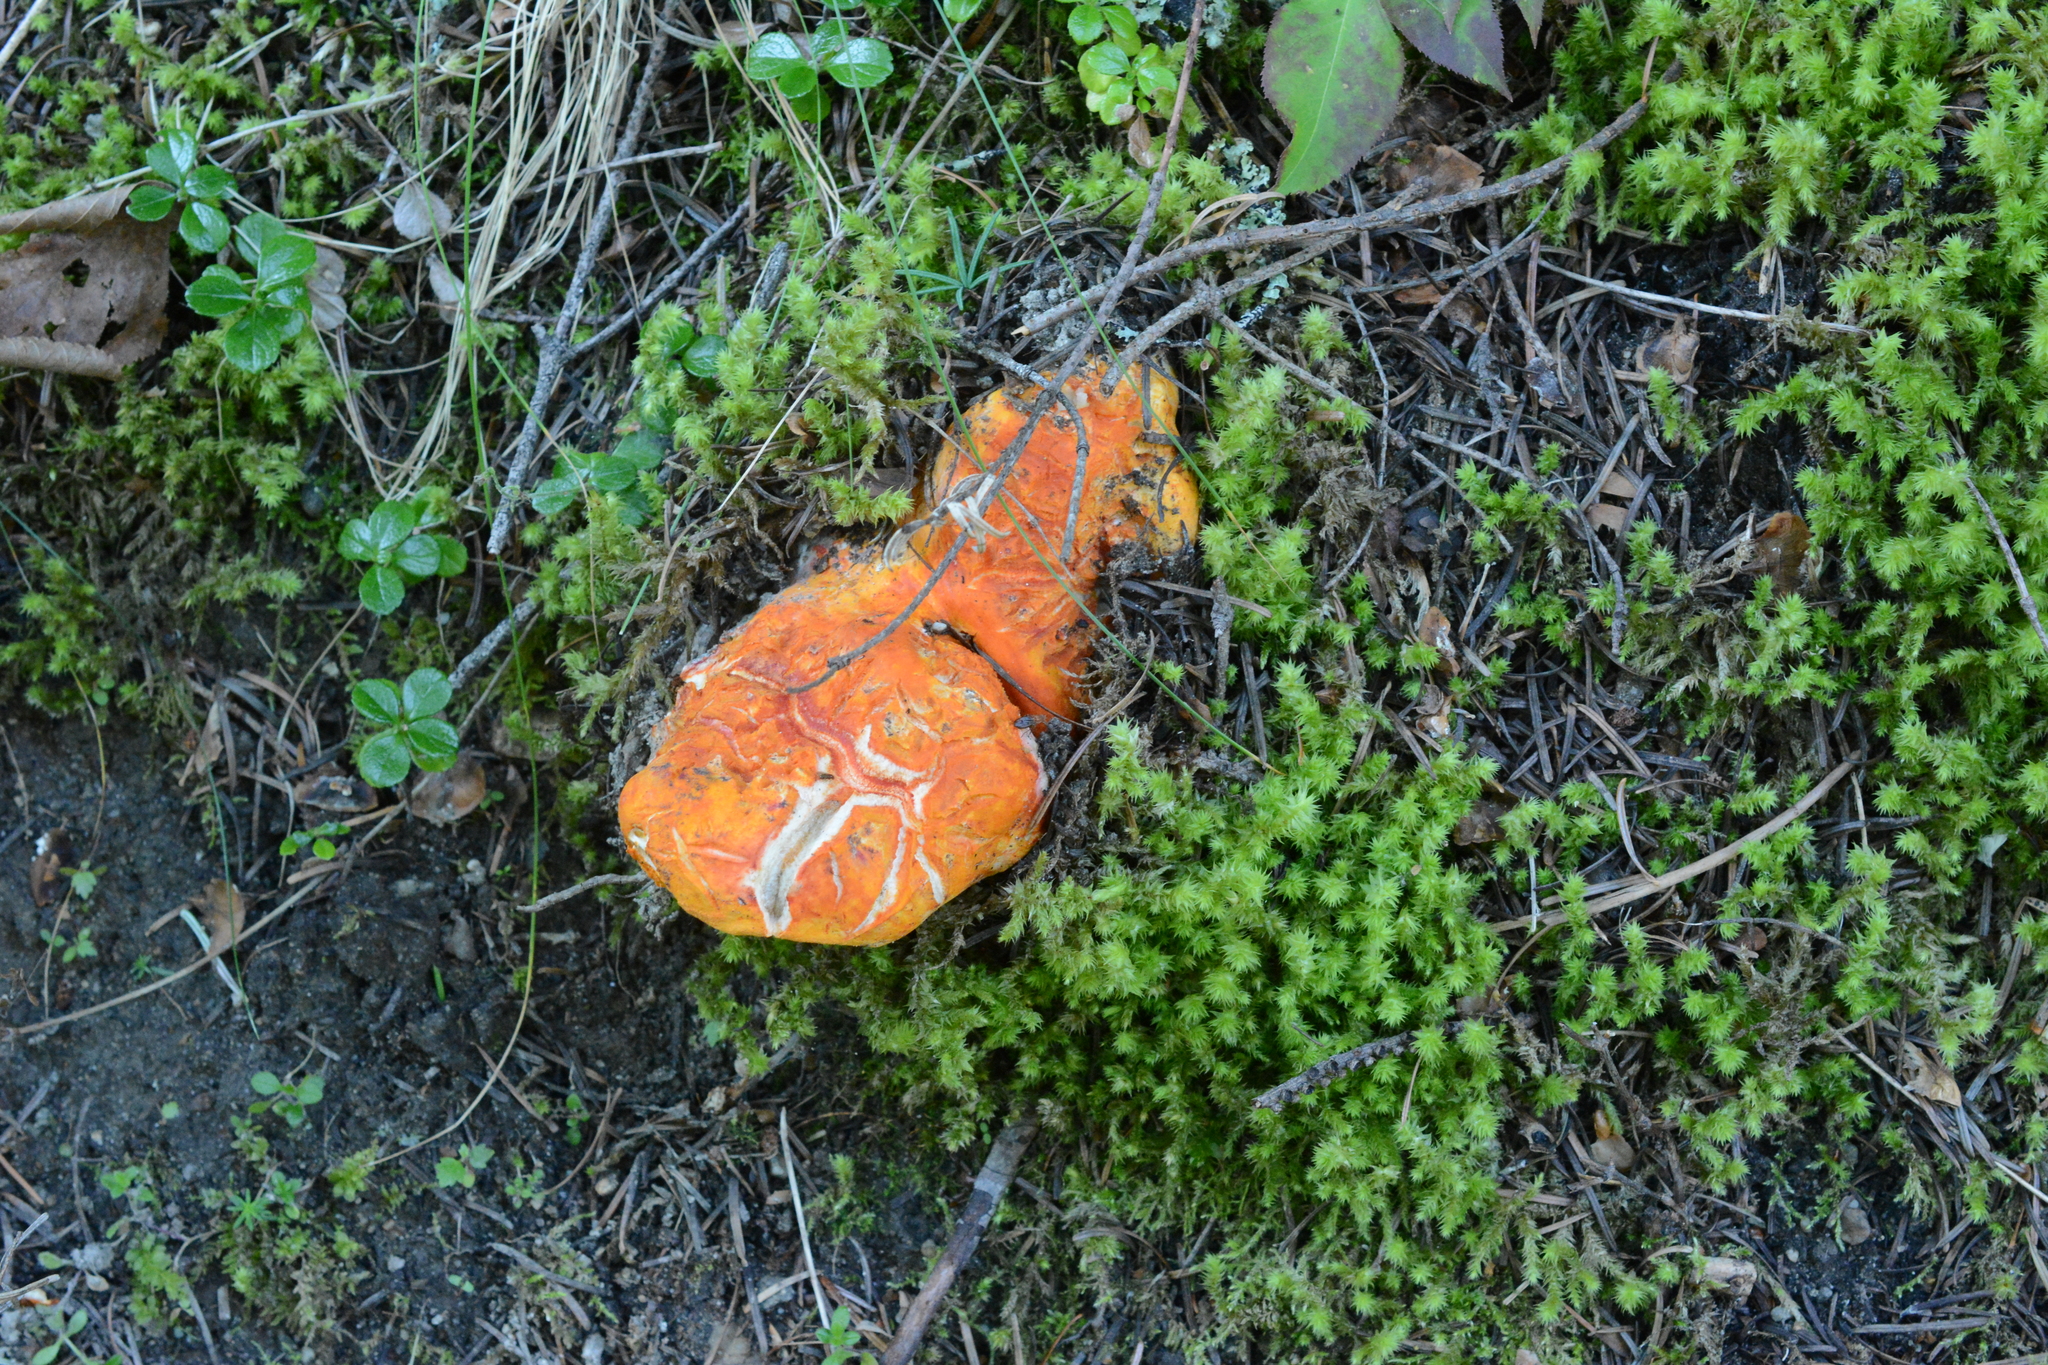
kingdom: Fungi
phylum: Ascomycota
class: Sordariomycetes
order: Hypocreales
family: Hypocreaceae
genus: Hypomyces
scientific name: Hypomyces lactifluorum
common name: Lobster mushroom
